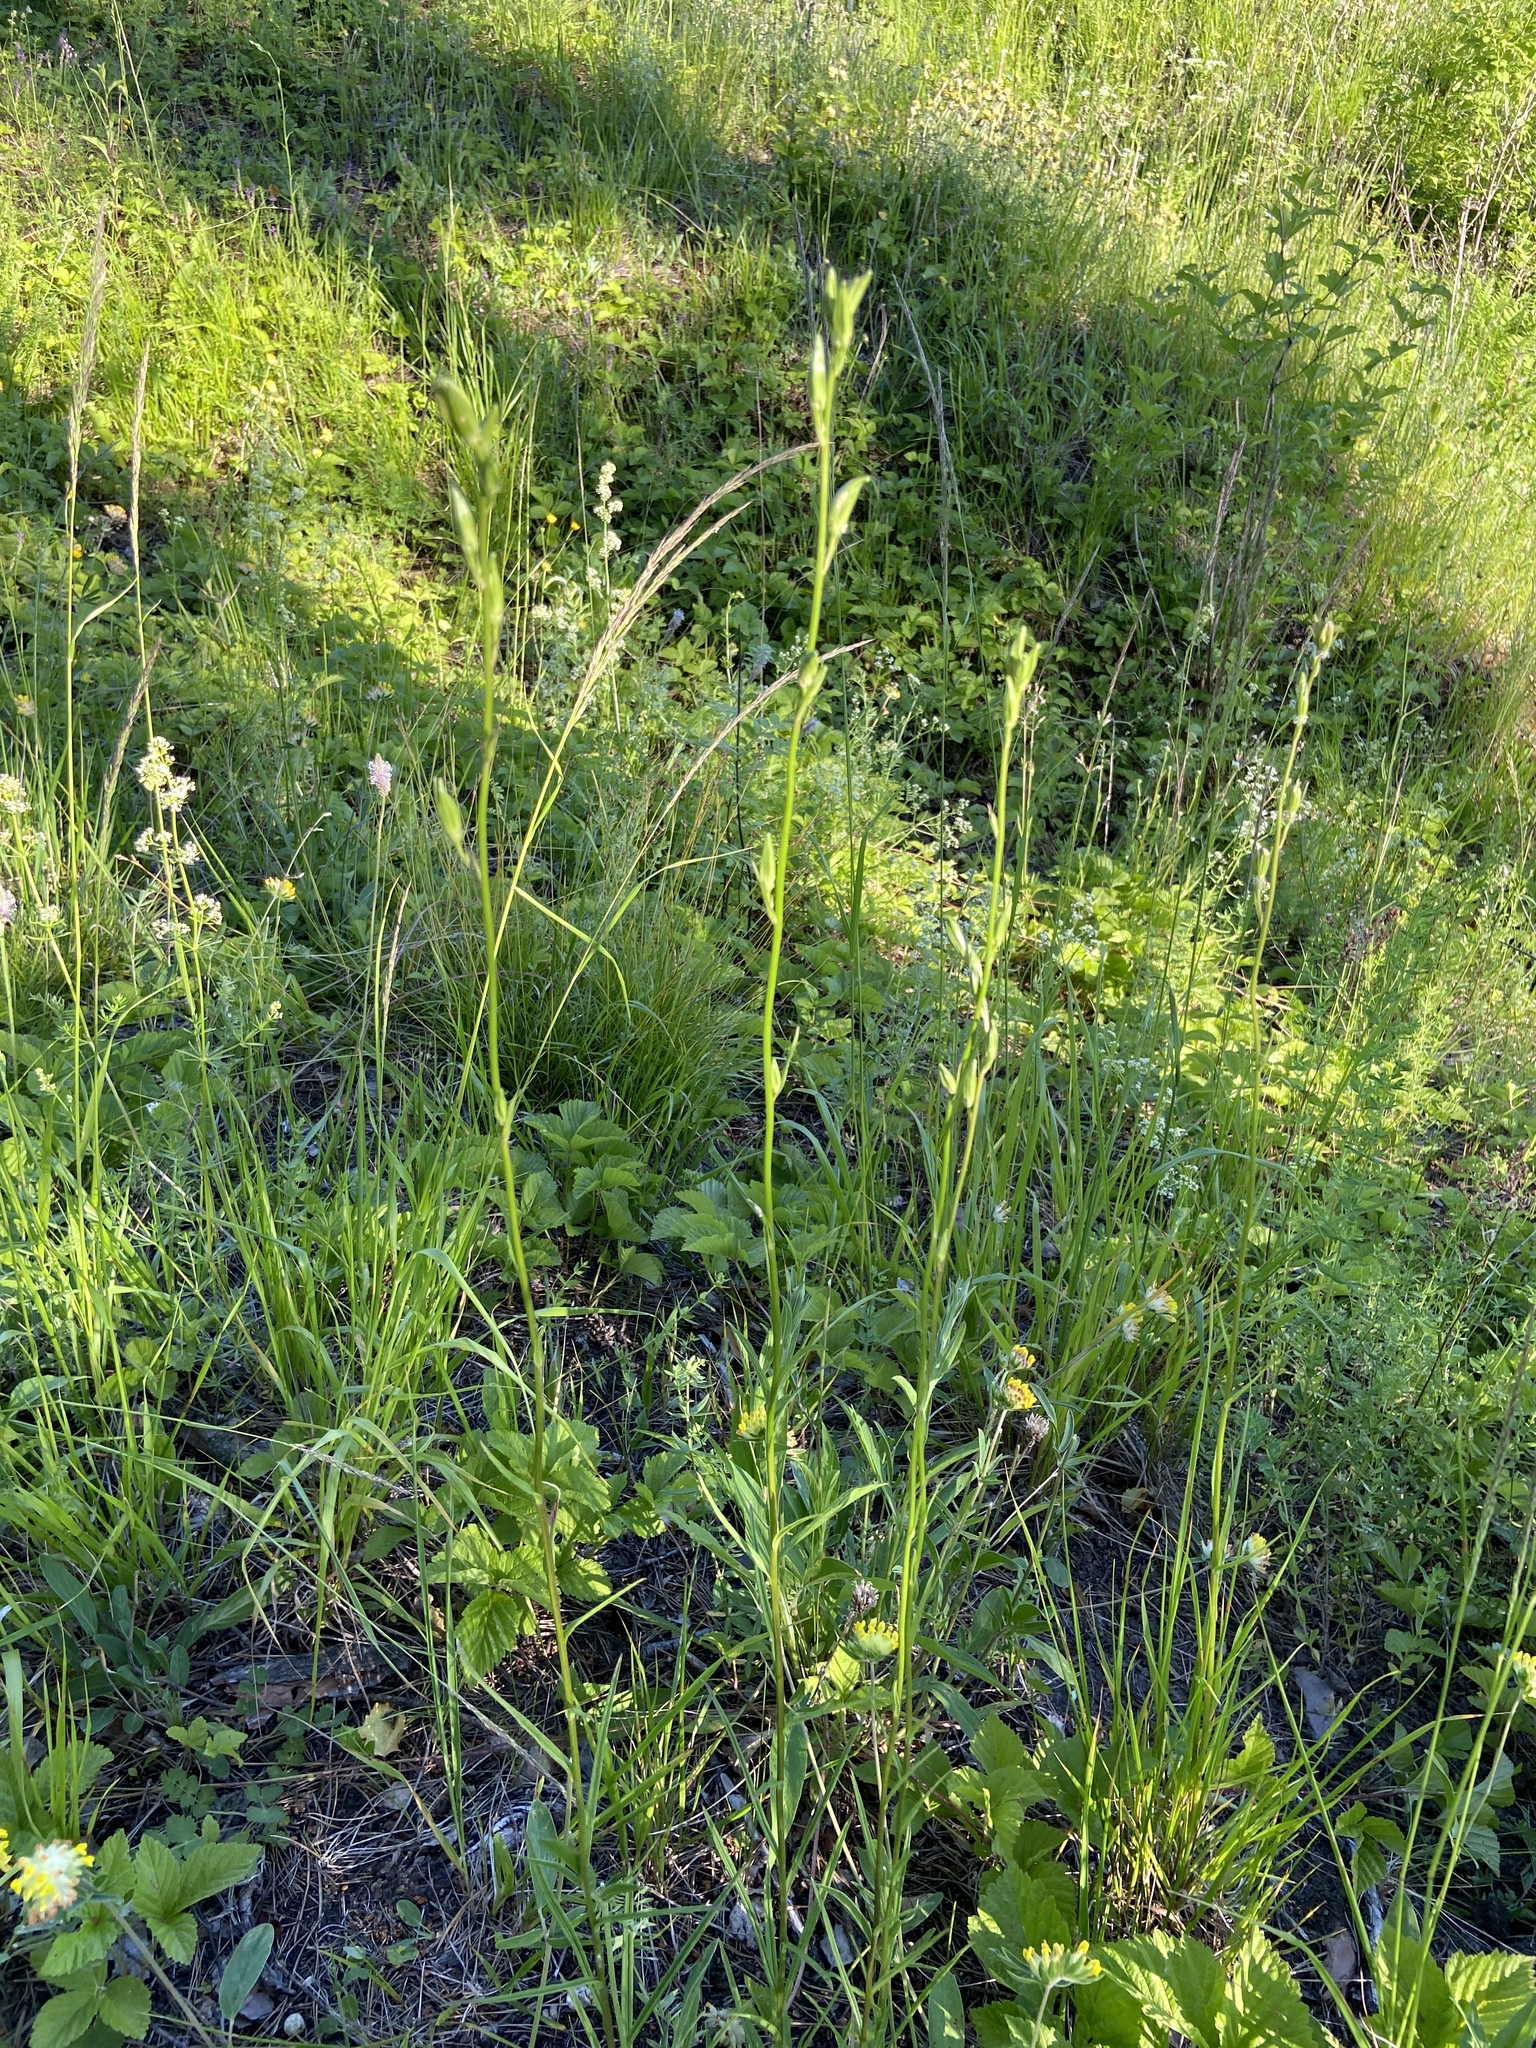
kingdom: Plantae
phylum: Tracheophyta
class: Magnoliopsida
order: Asterales
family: Campanulaceae
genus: Campanula
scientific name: Campanula persicifolia
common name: Peach-leaved bellflower
